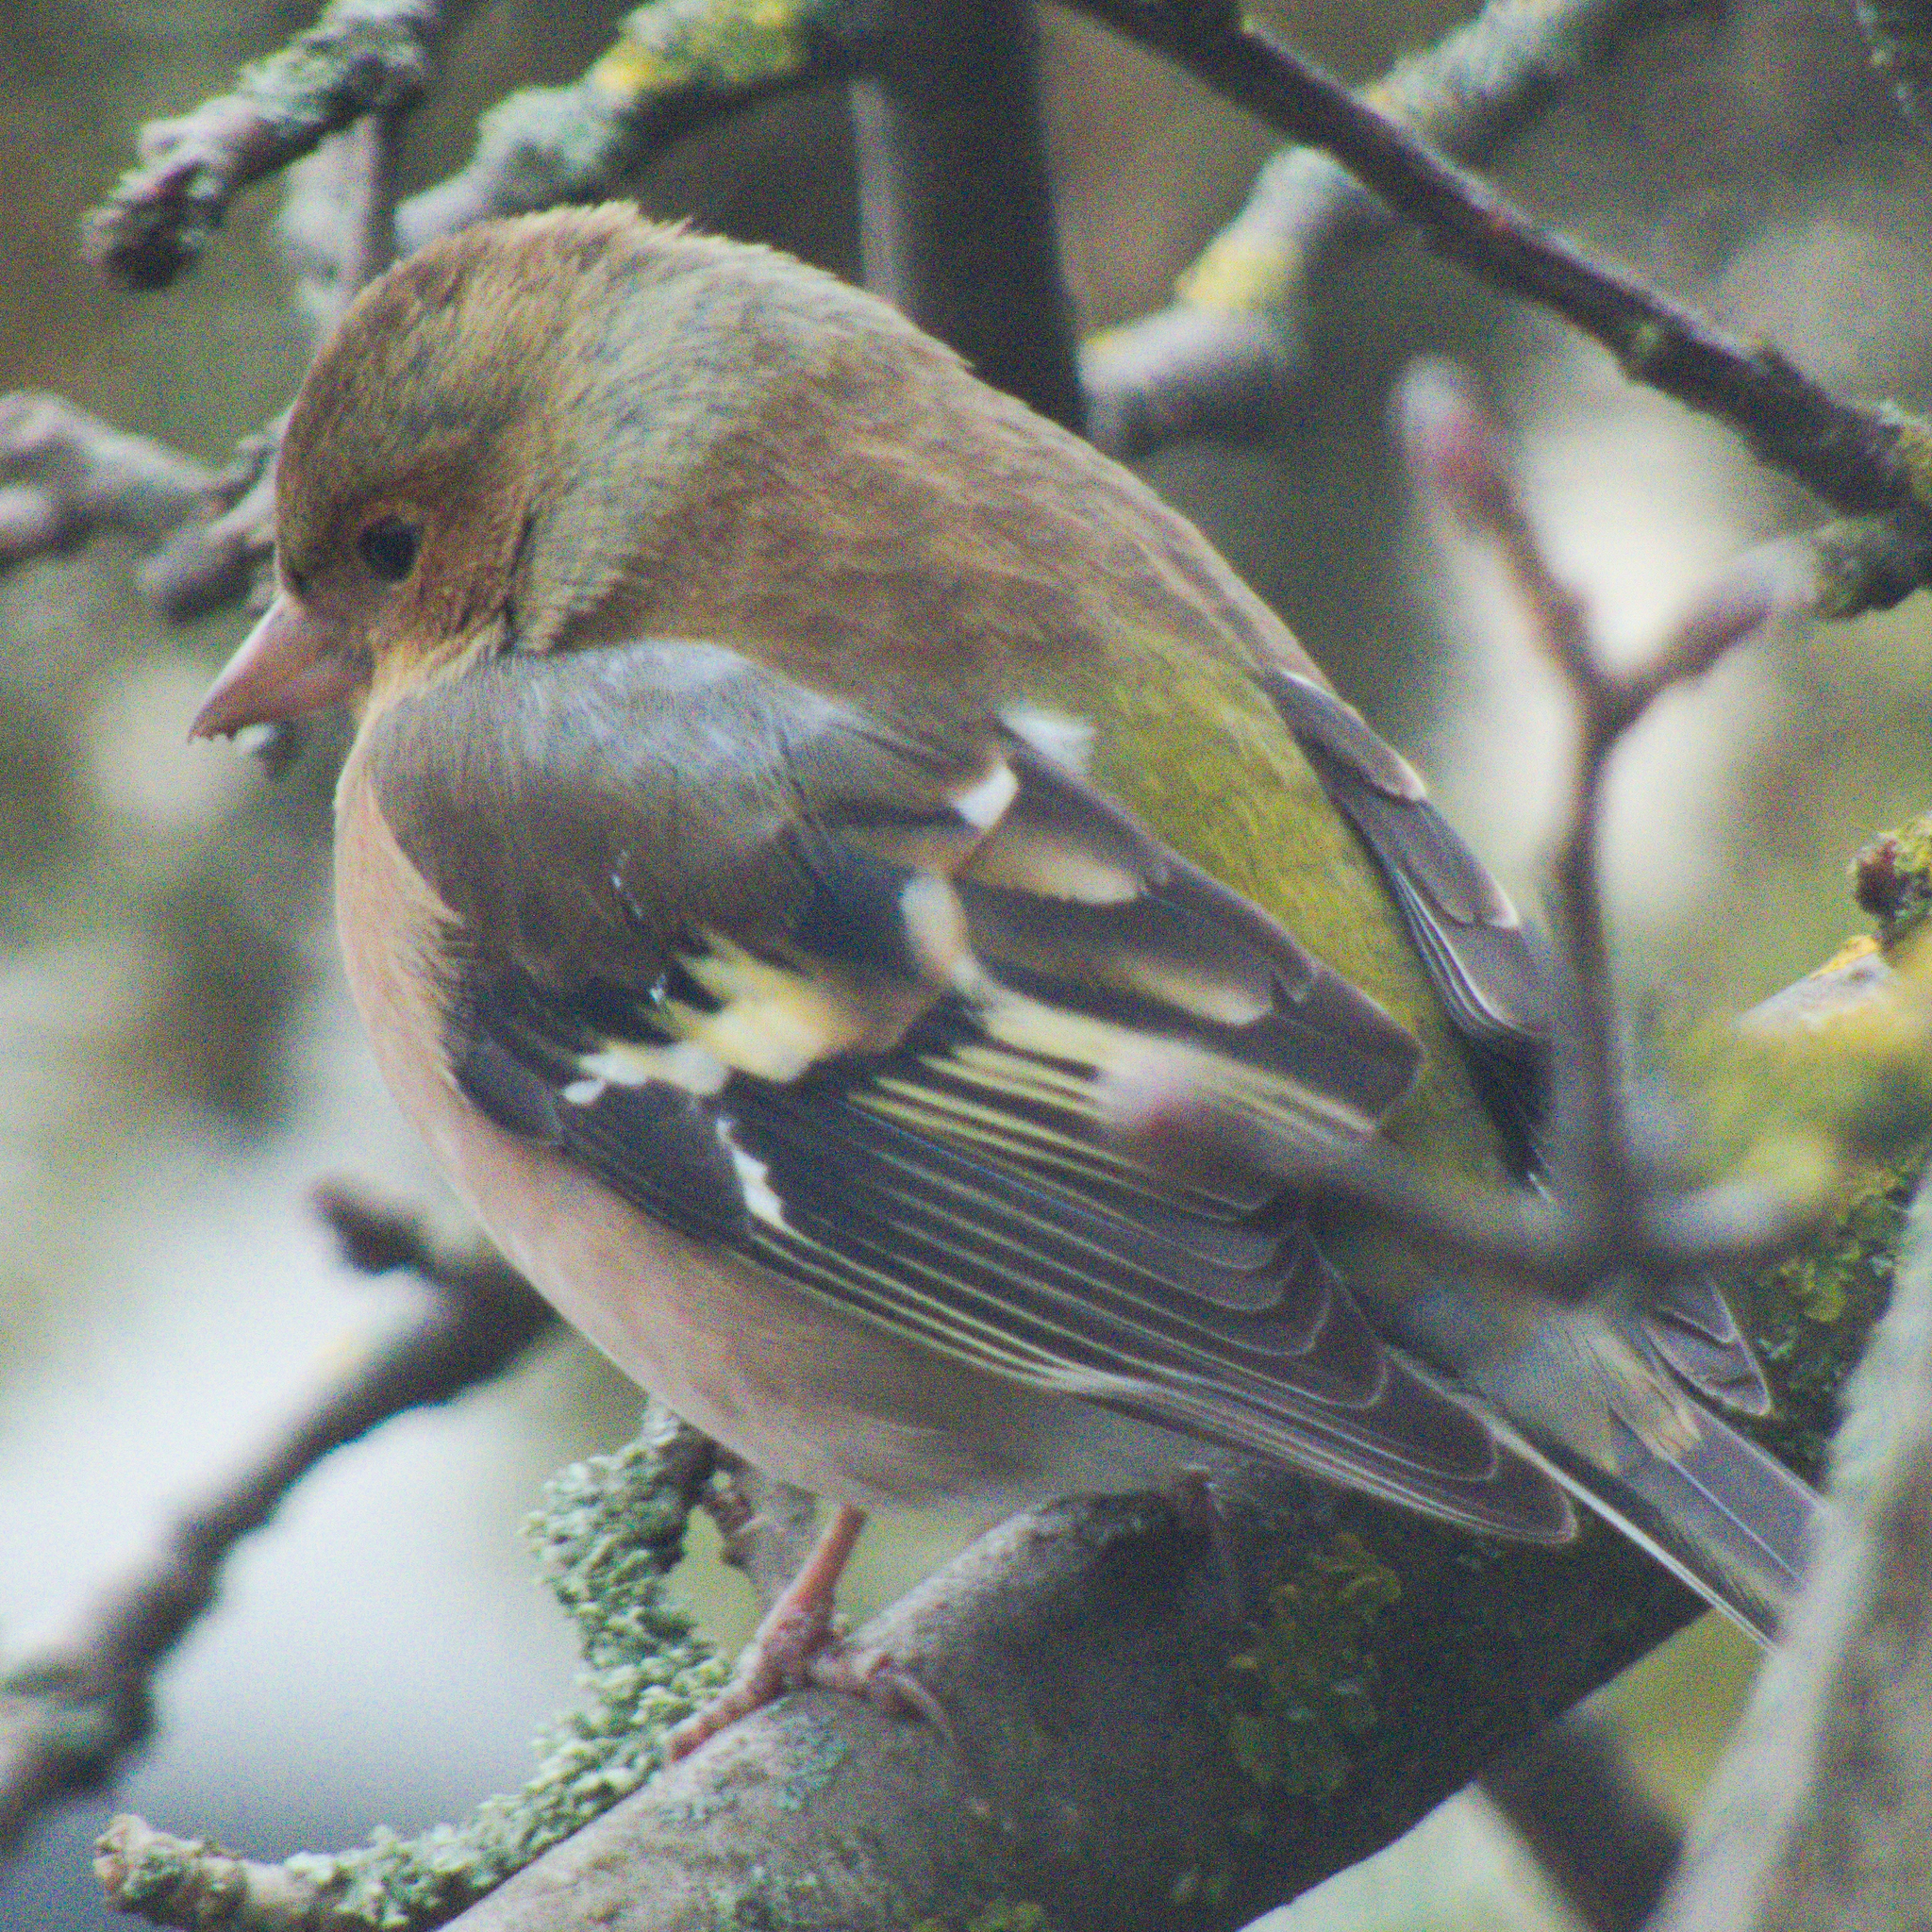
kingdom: Animalia
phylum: Chordata
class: Aves
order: Passeriformes
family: Fringillidae
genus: Fringilla
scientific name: Fringilla coelebs
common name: Common chaffinch
